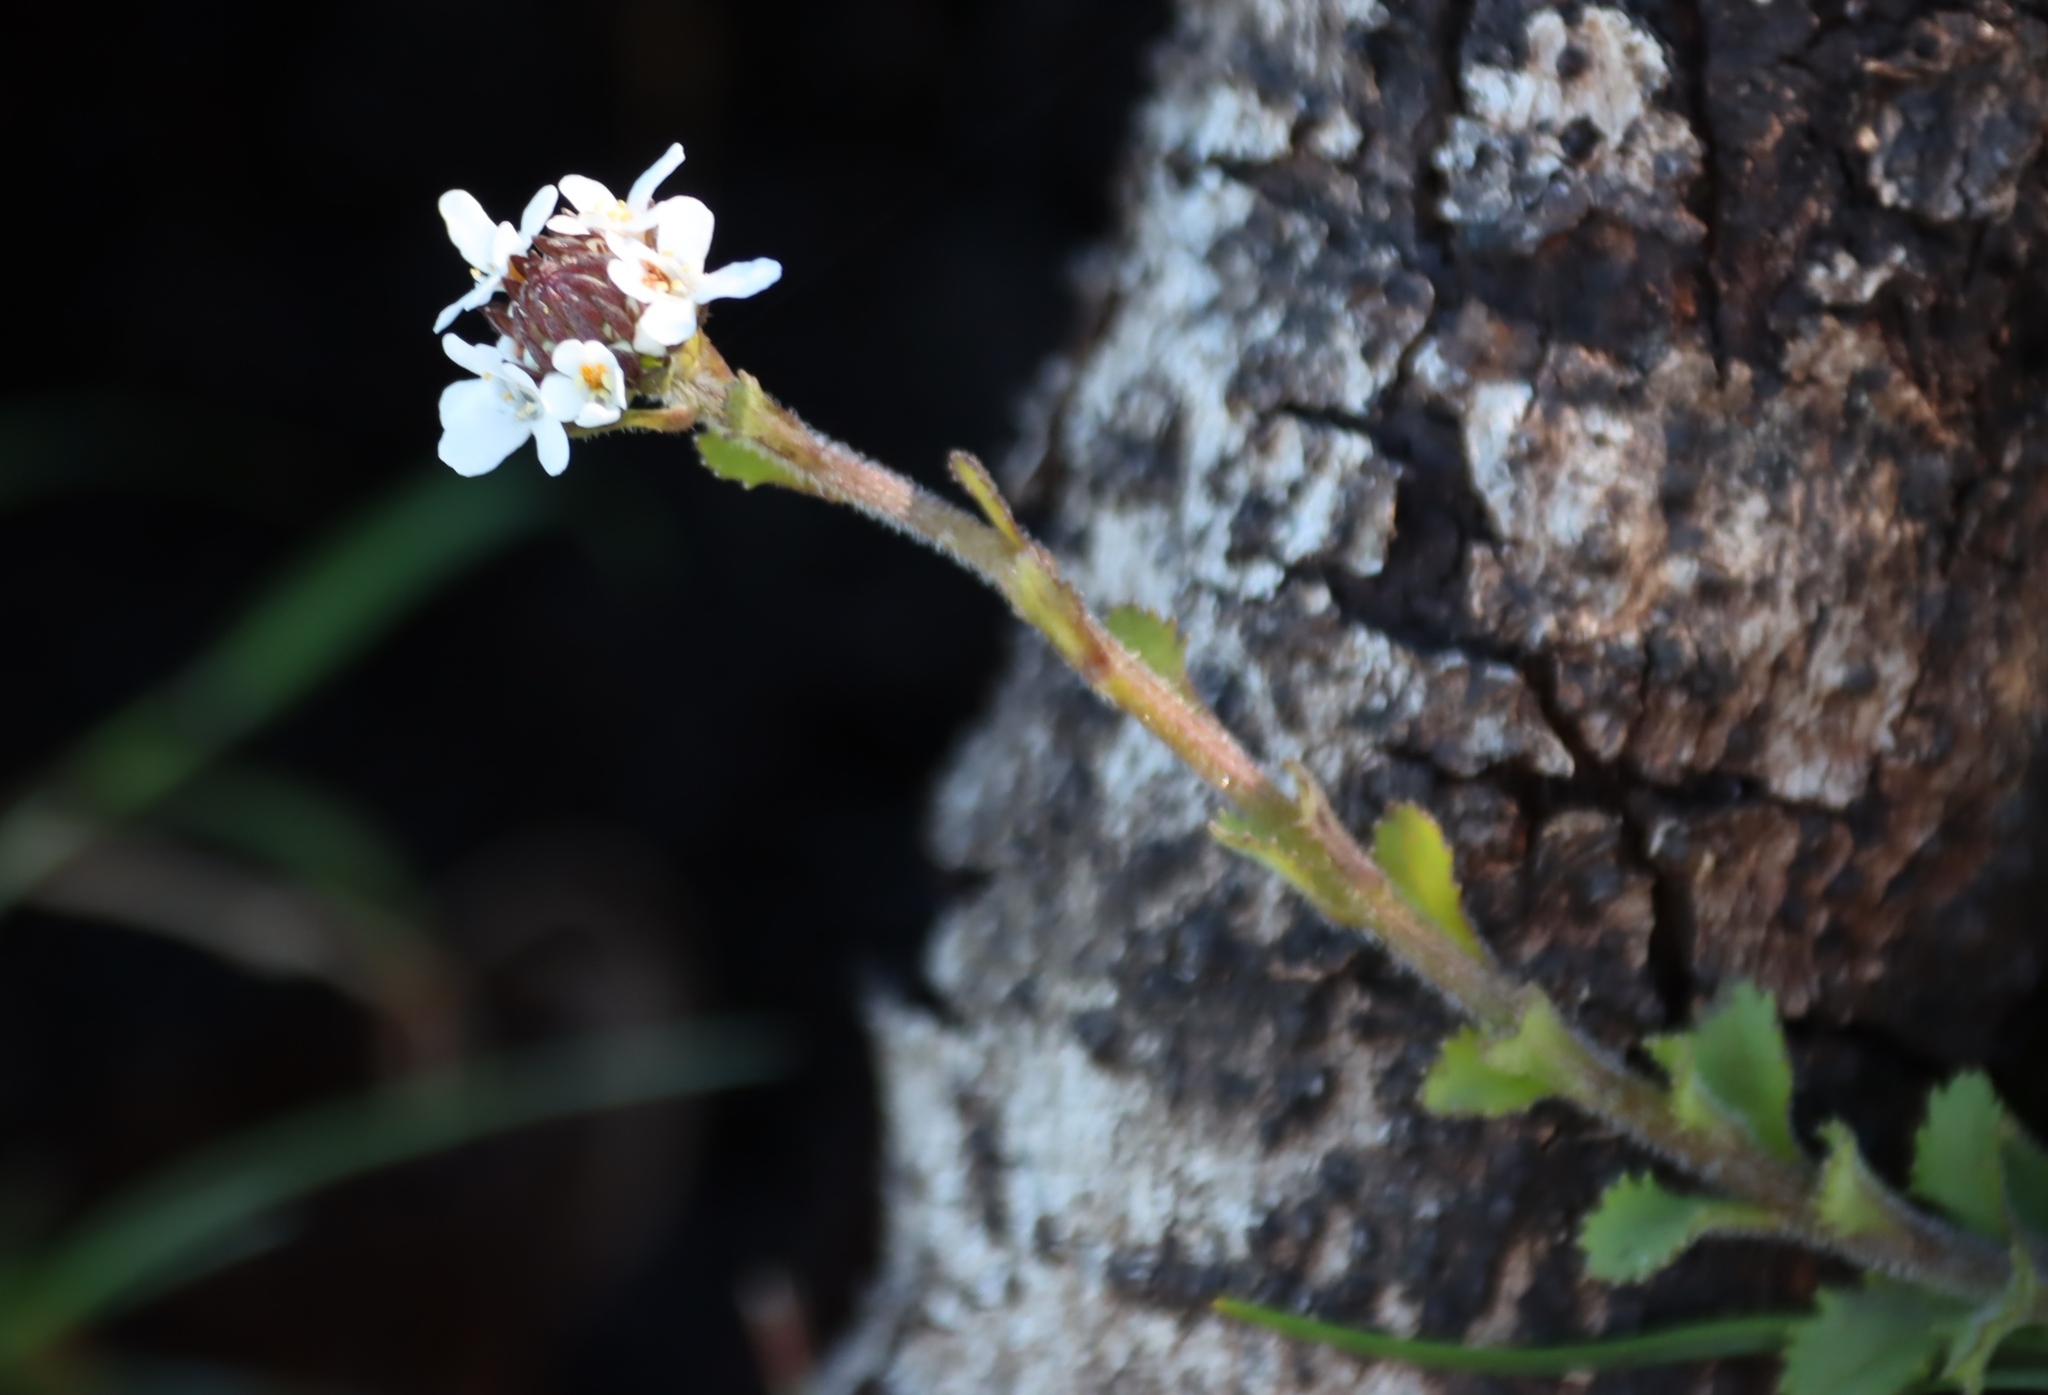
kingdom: Plantae
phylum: Tracheophyta
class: Magnoliopsida
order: Lamiales
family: Scrophulariaceae
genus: Pseudoselago
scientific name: Pseudoselago peninsulae
